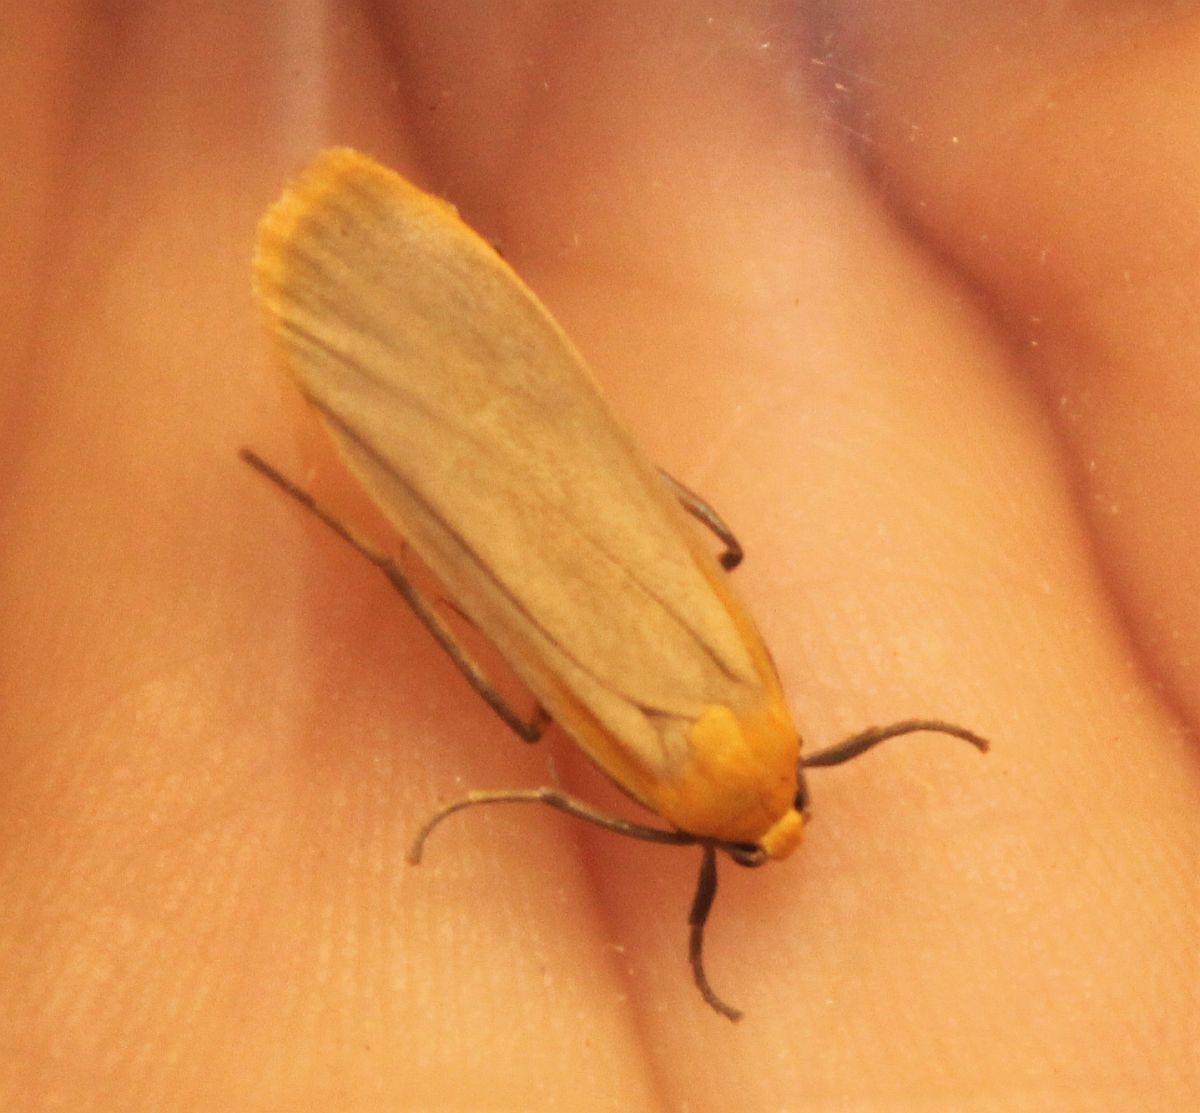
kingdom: Animalia
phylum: Arthropoda
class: Insecta
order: Lepidoptera
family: Erebidae
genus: Katha
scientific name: Katha depressa
